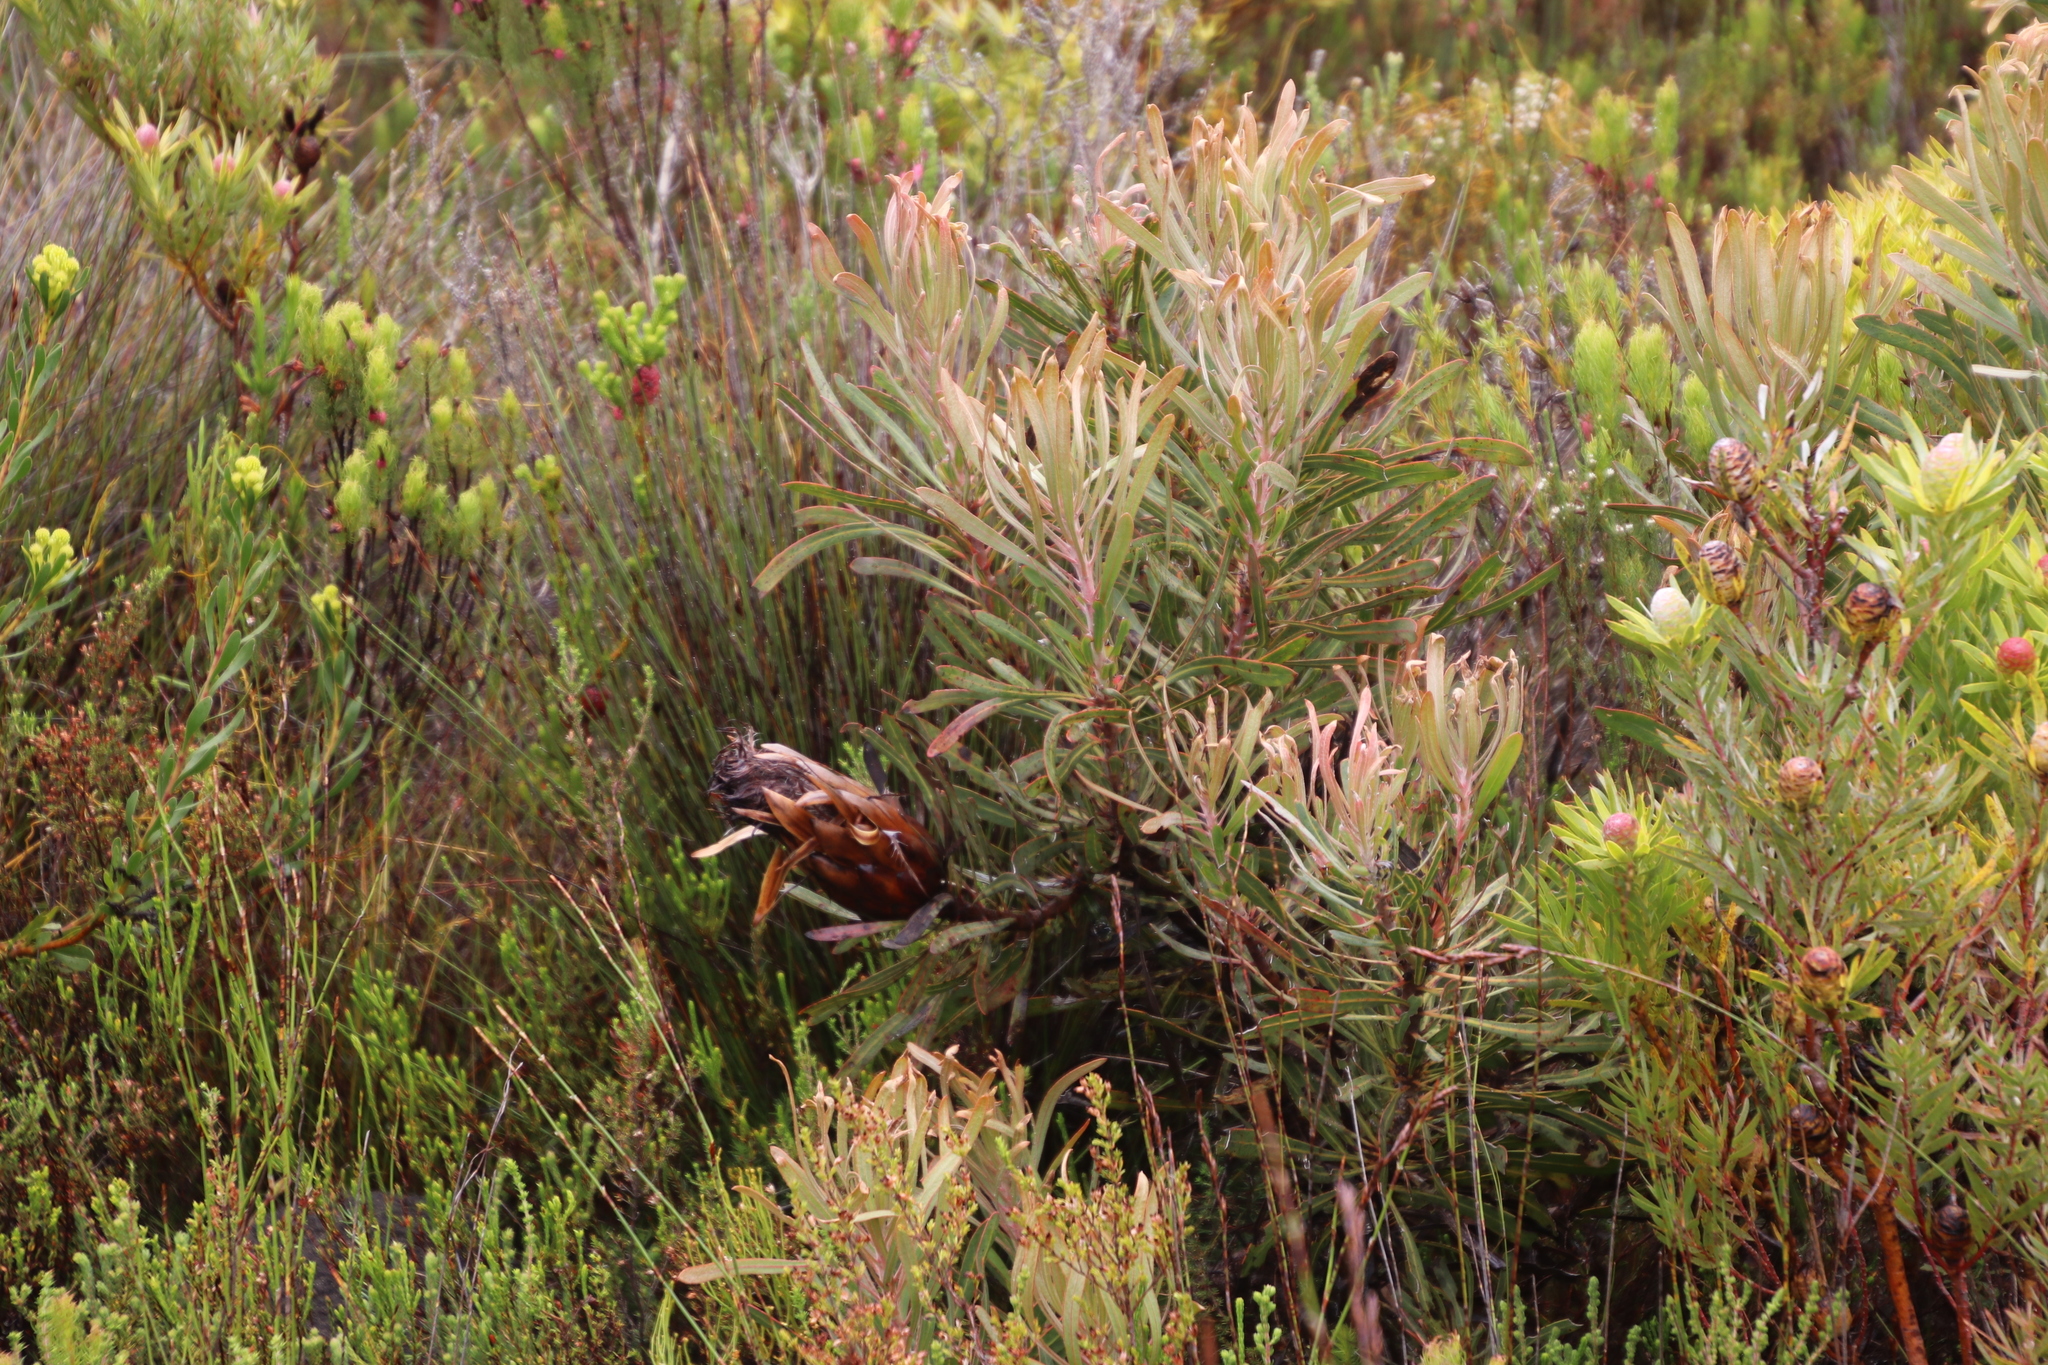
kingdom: Plantae
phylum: Tracheophyta
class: Magnoliopsida
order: Proteales
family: Proteaceae
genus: Protea
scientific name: Protea longifolia
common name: Long-leaf sugarbush
